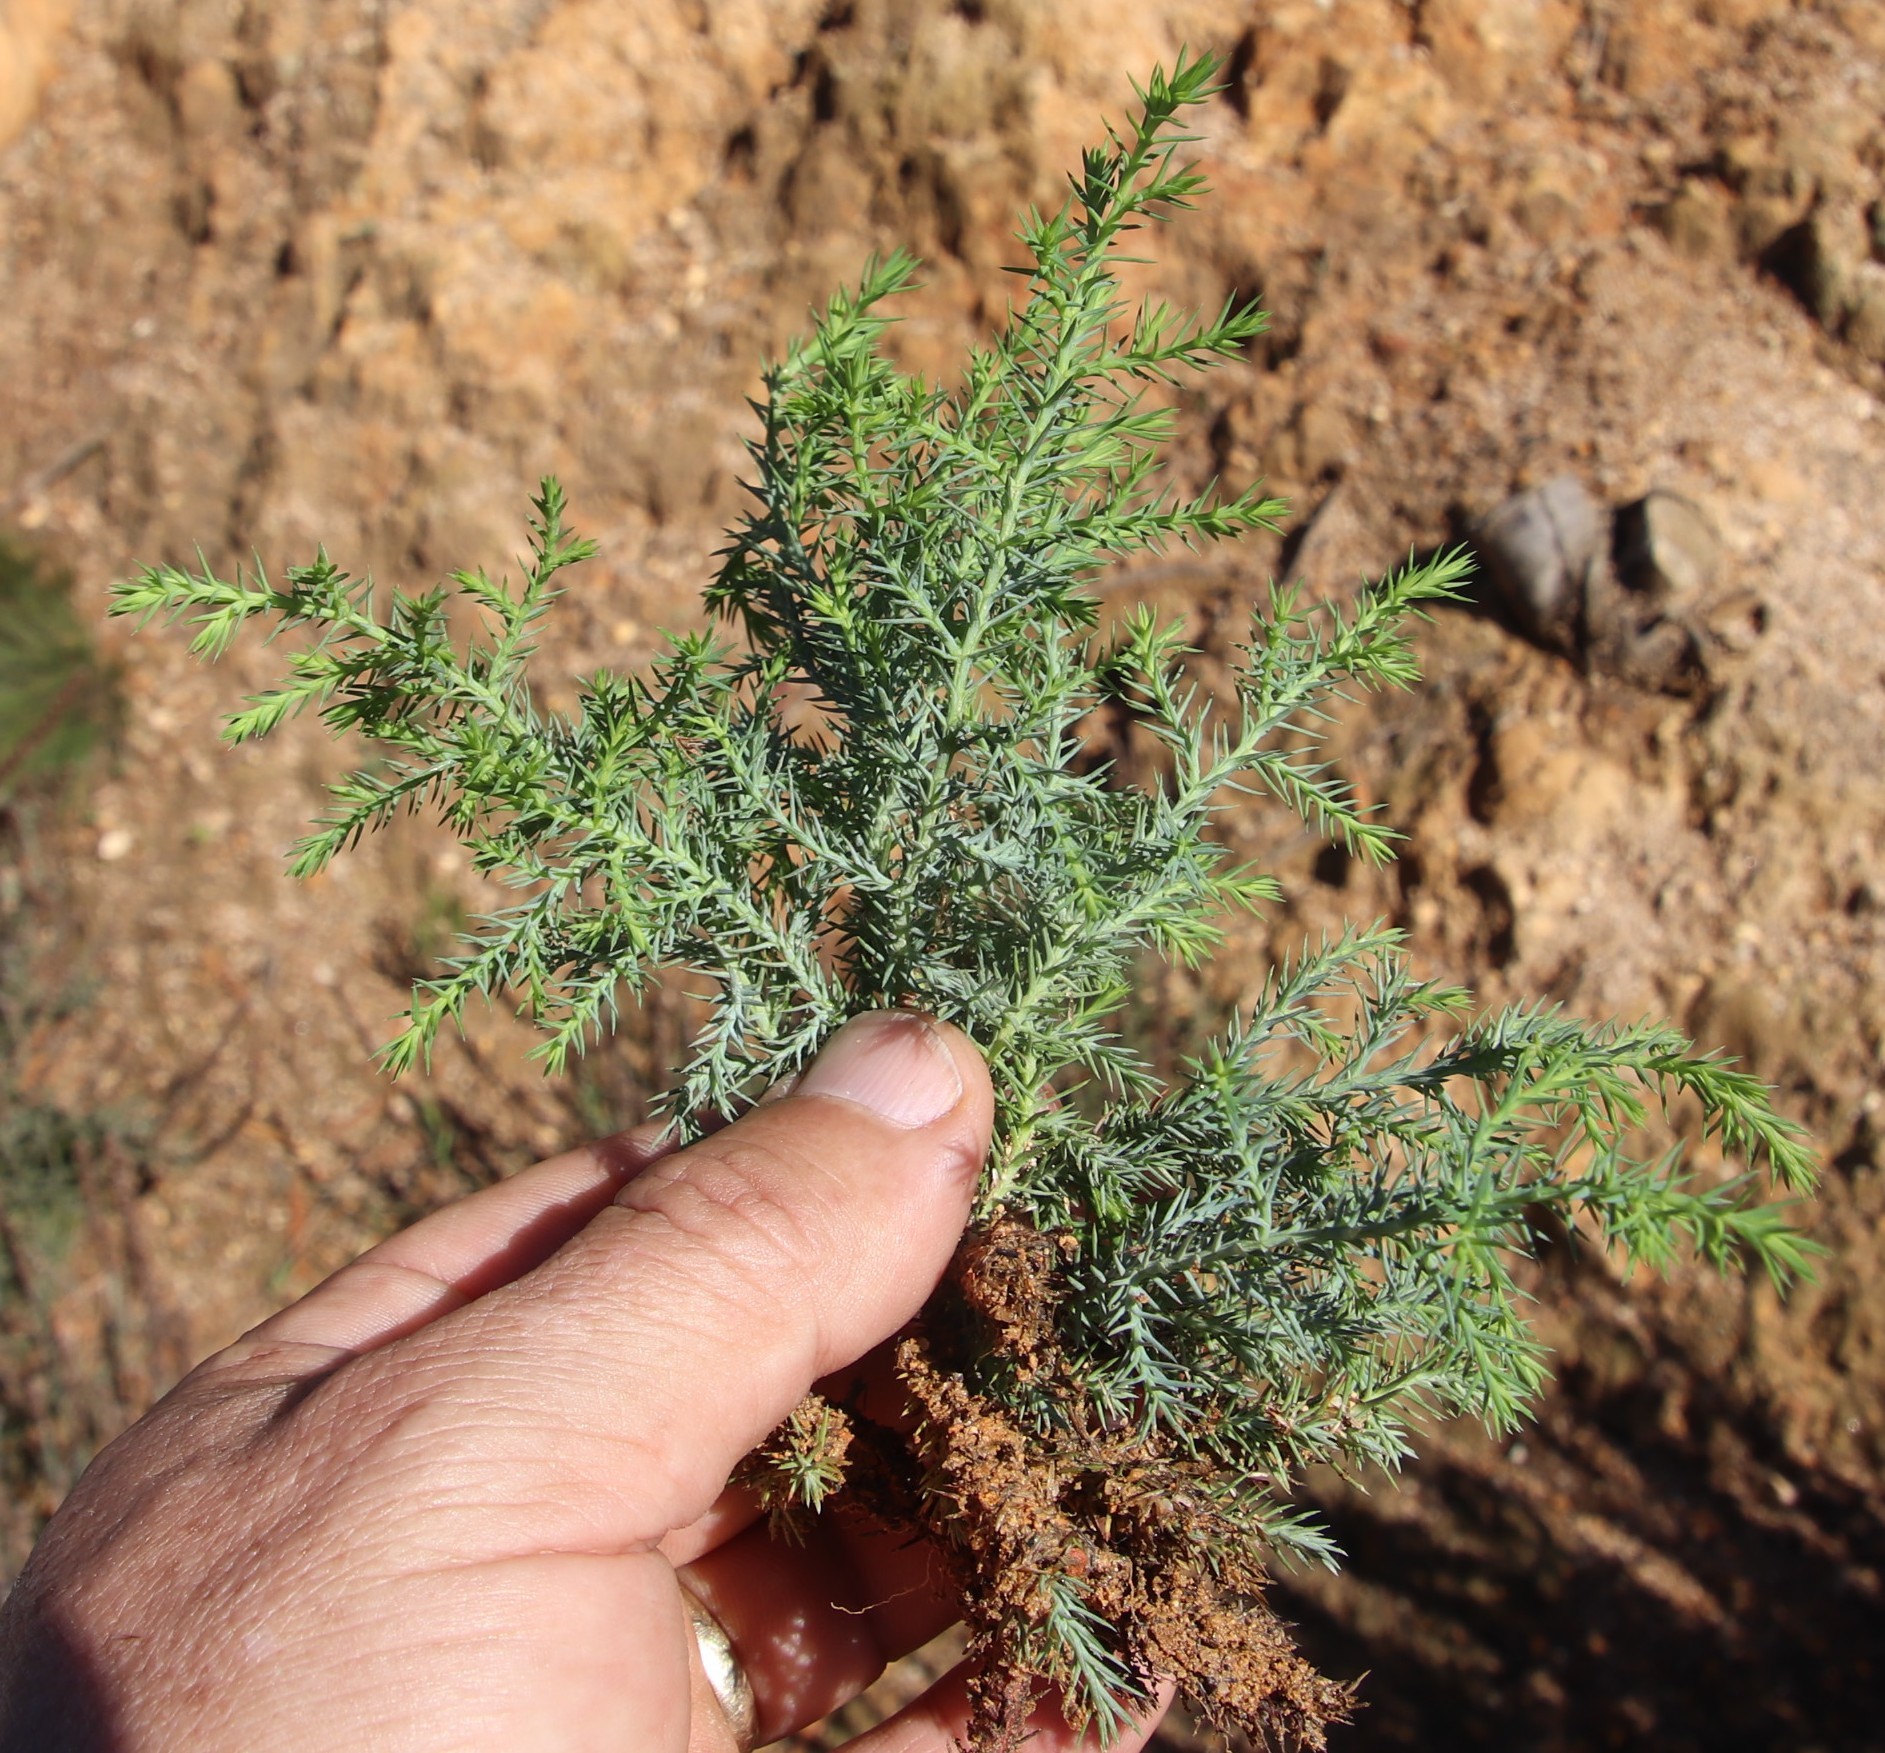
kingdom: Plantae
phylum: Tracheophyta
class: Pinopsida
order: Pinales
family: Cupressaceae
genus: Cupressus
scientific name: Cupressus lusitanica
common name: Mexican cypress
